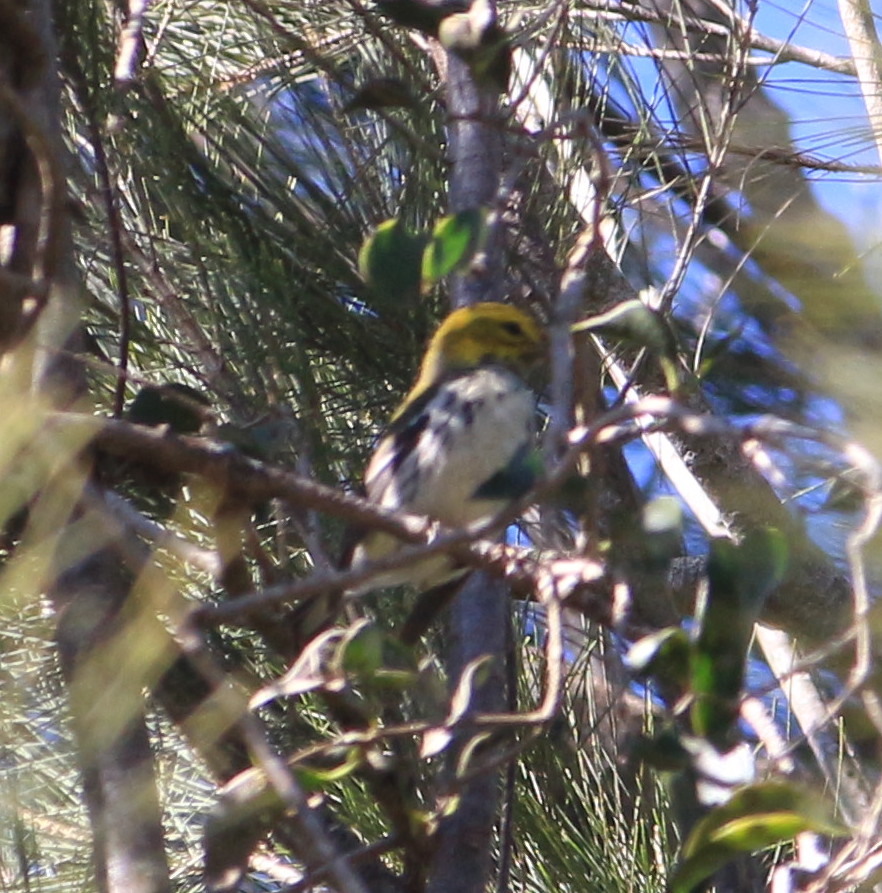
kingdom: Animalia
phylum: Chordata
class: Aves
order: Passeriformes
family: Parulidae
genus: Setophaga
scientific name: Setophaga virens
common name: Black-throated green warbler
